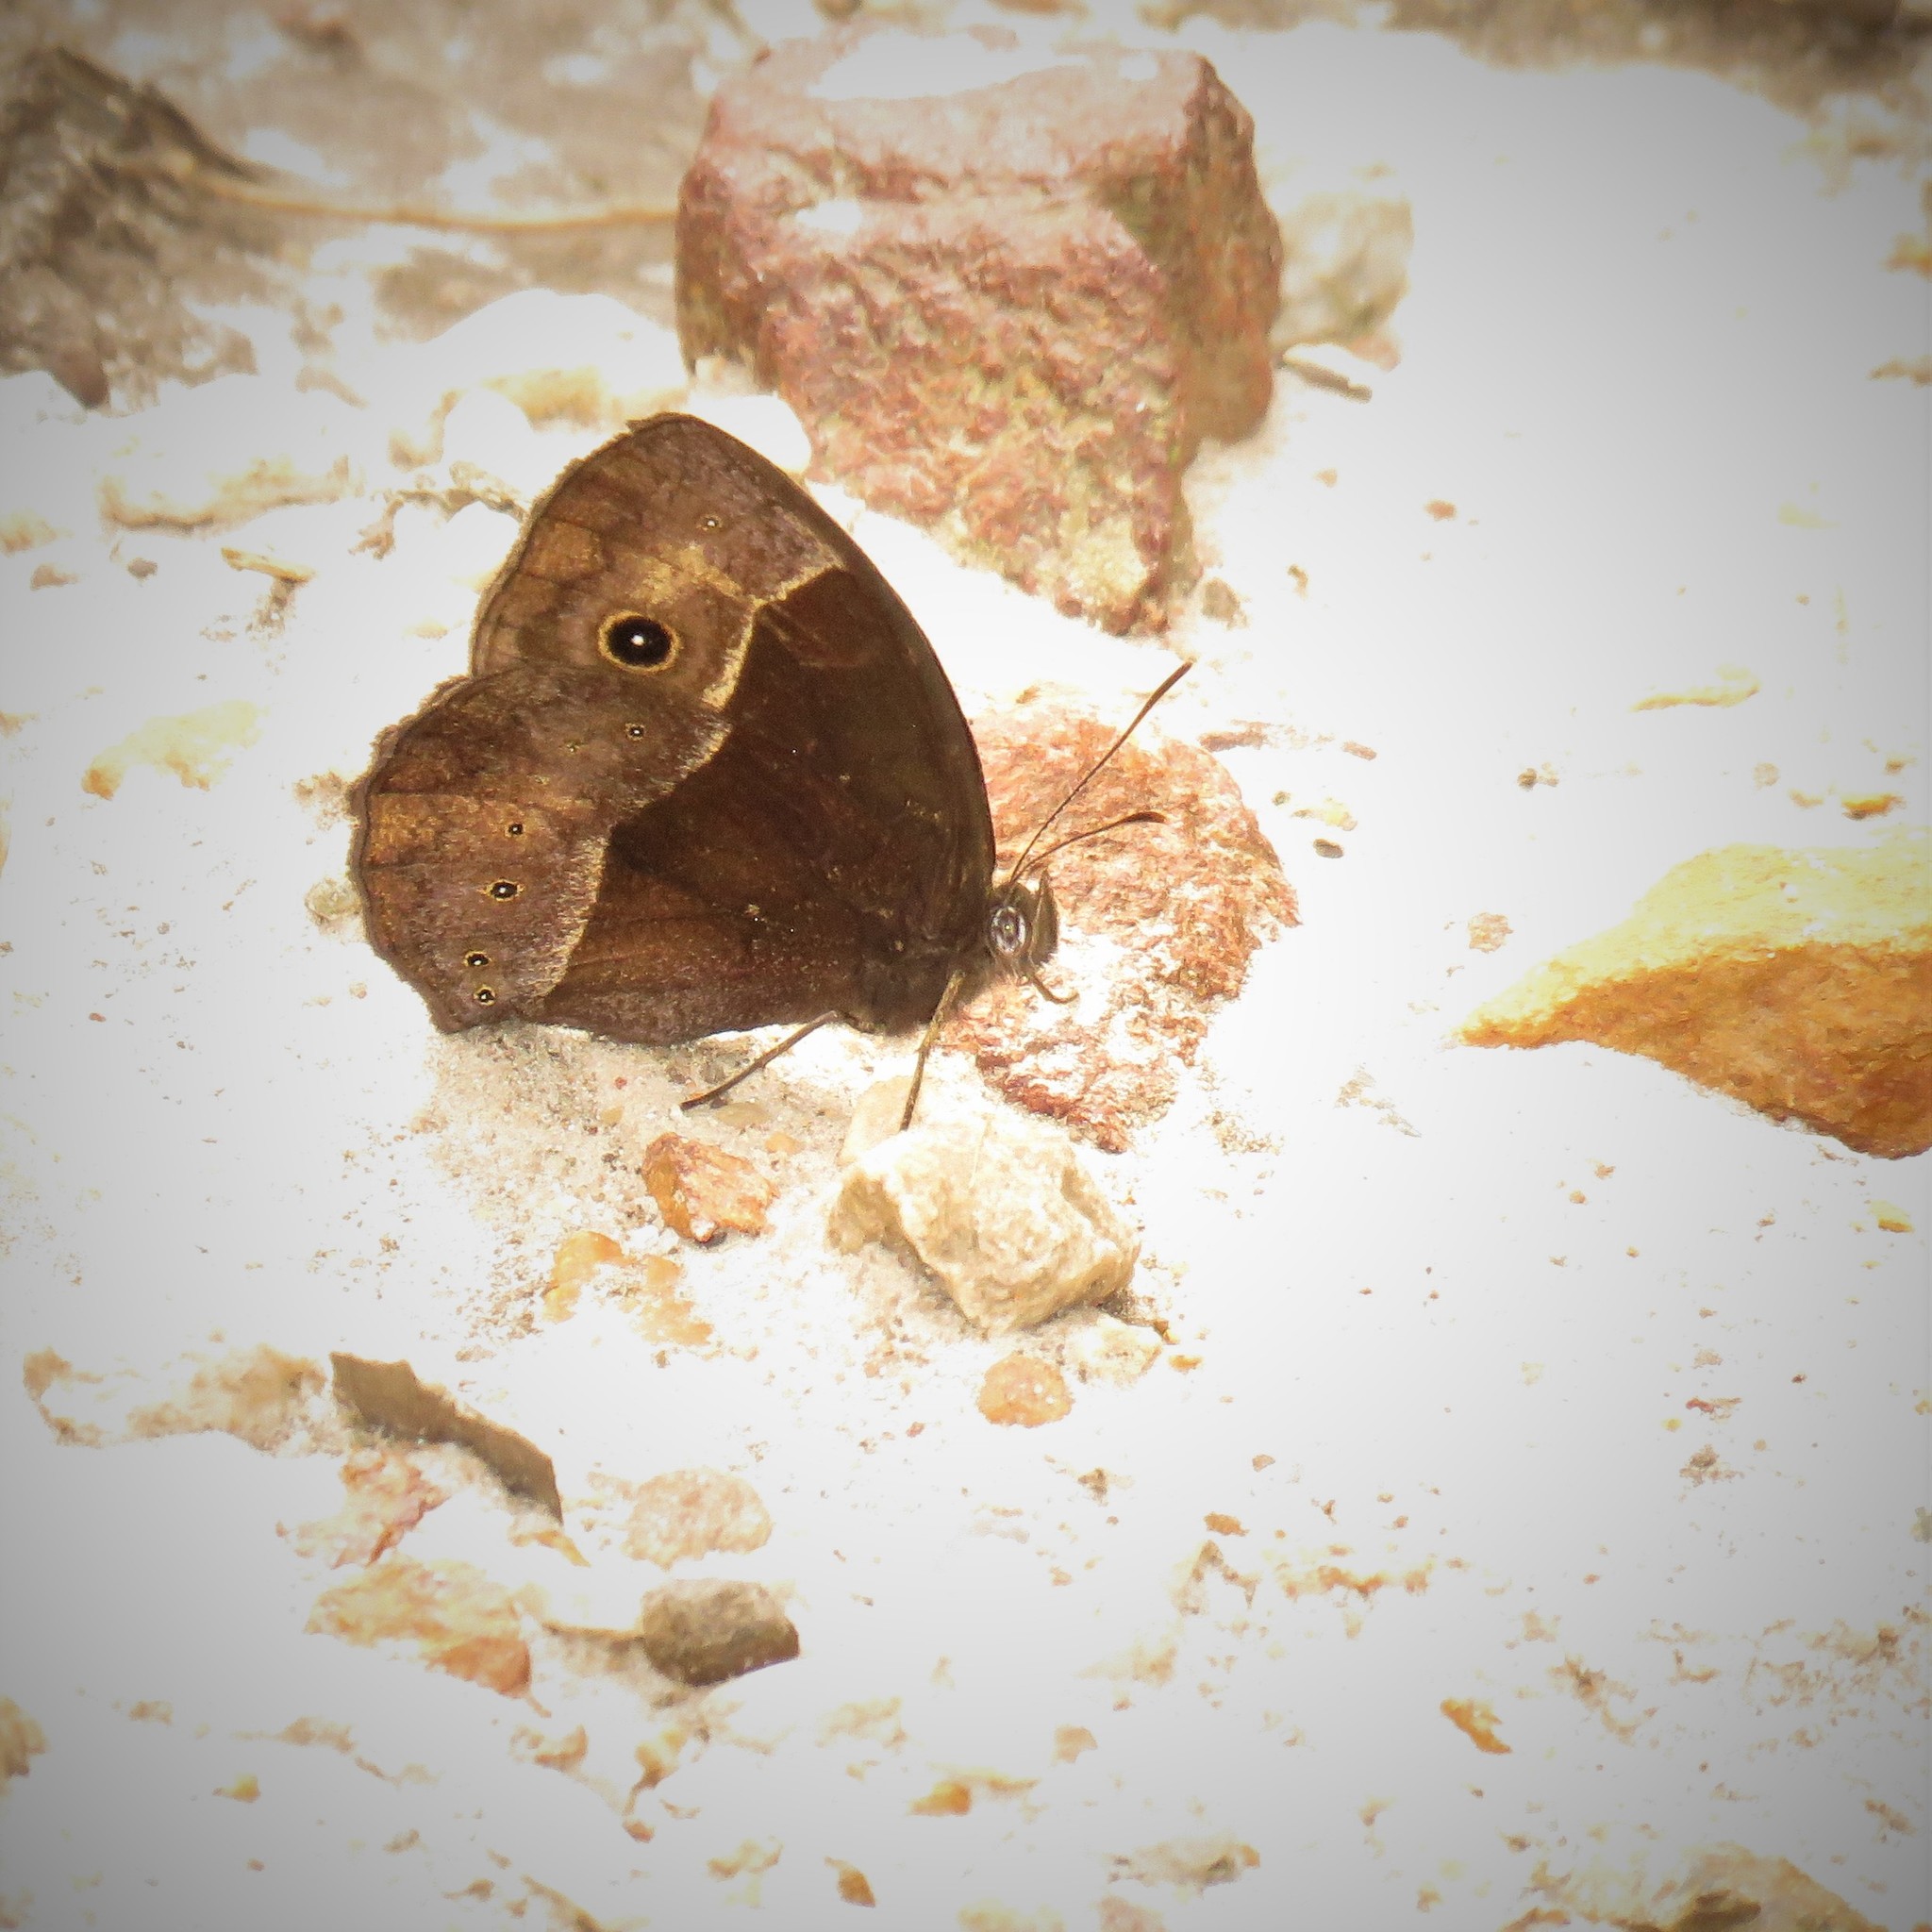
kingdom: Animalia
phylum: Arthropoda
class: Insecta
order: Lepidoptera
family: Nymphalidae
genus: Mycalesis
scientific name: Mycalesis rhacotis
